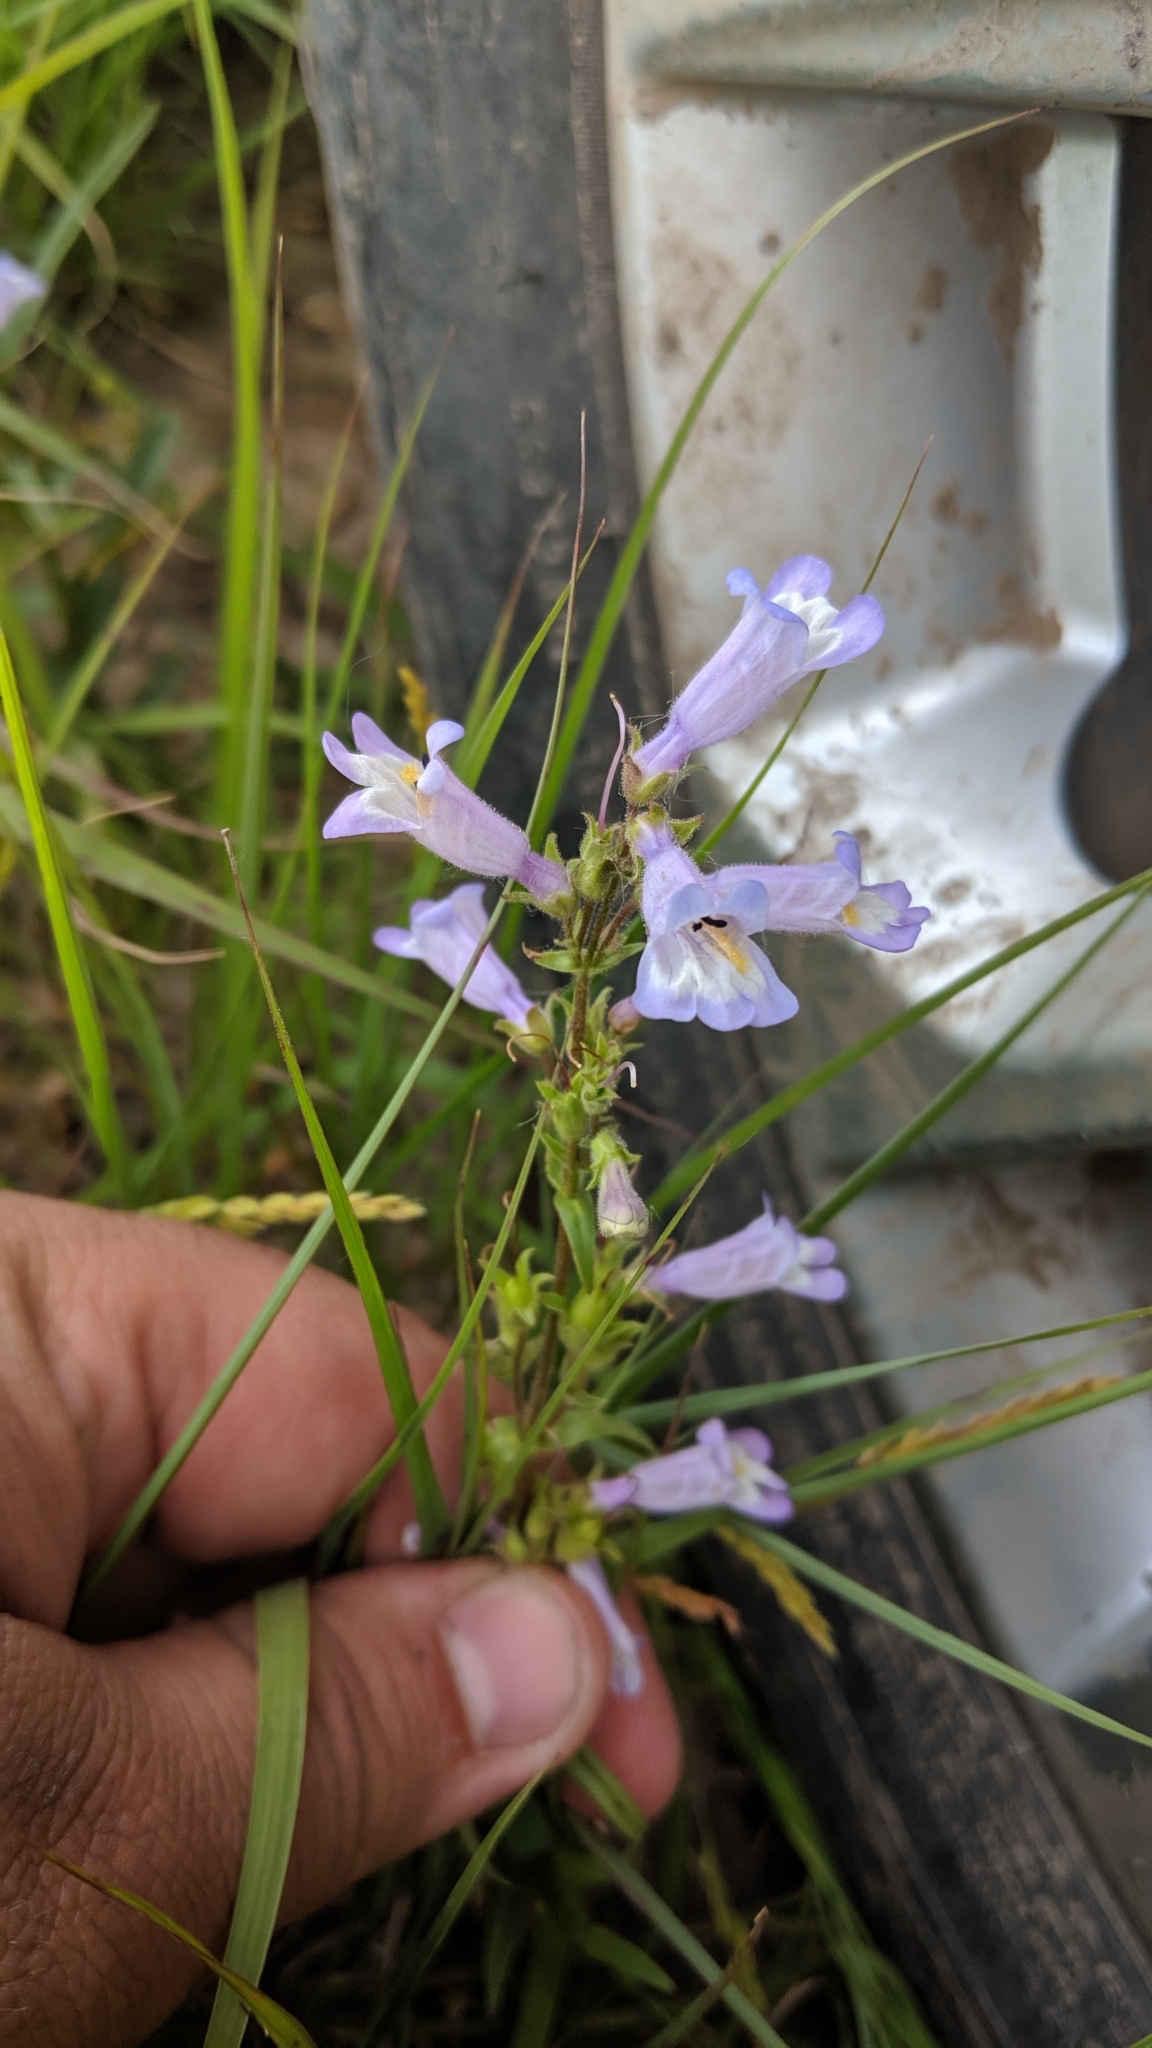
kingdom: Plantae
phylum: Tracheophyta
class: Magnoliopsida
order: Lamiales
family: Plantaginaceae
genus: Penstemon
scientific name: Penstemon gracilis
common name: Slender beardtongue
